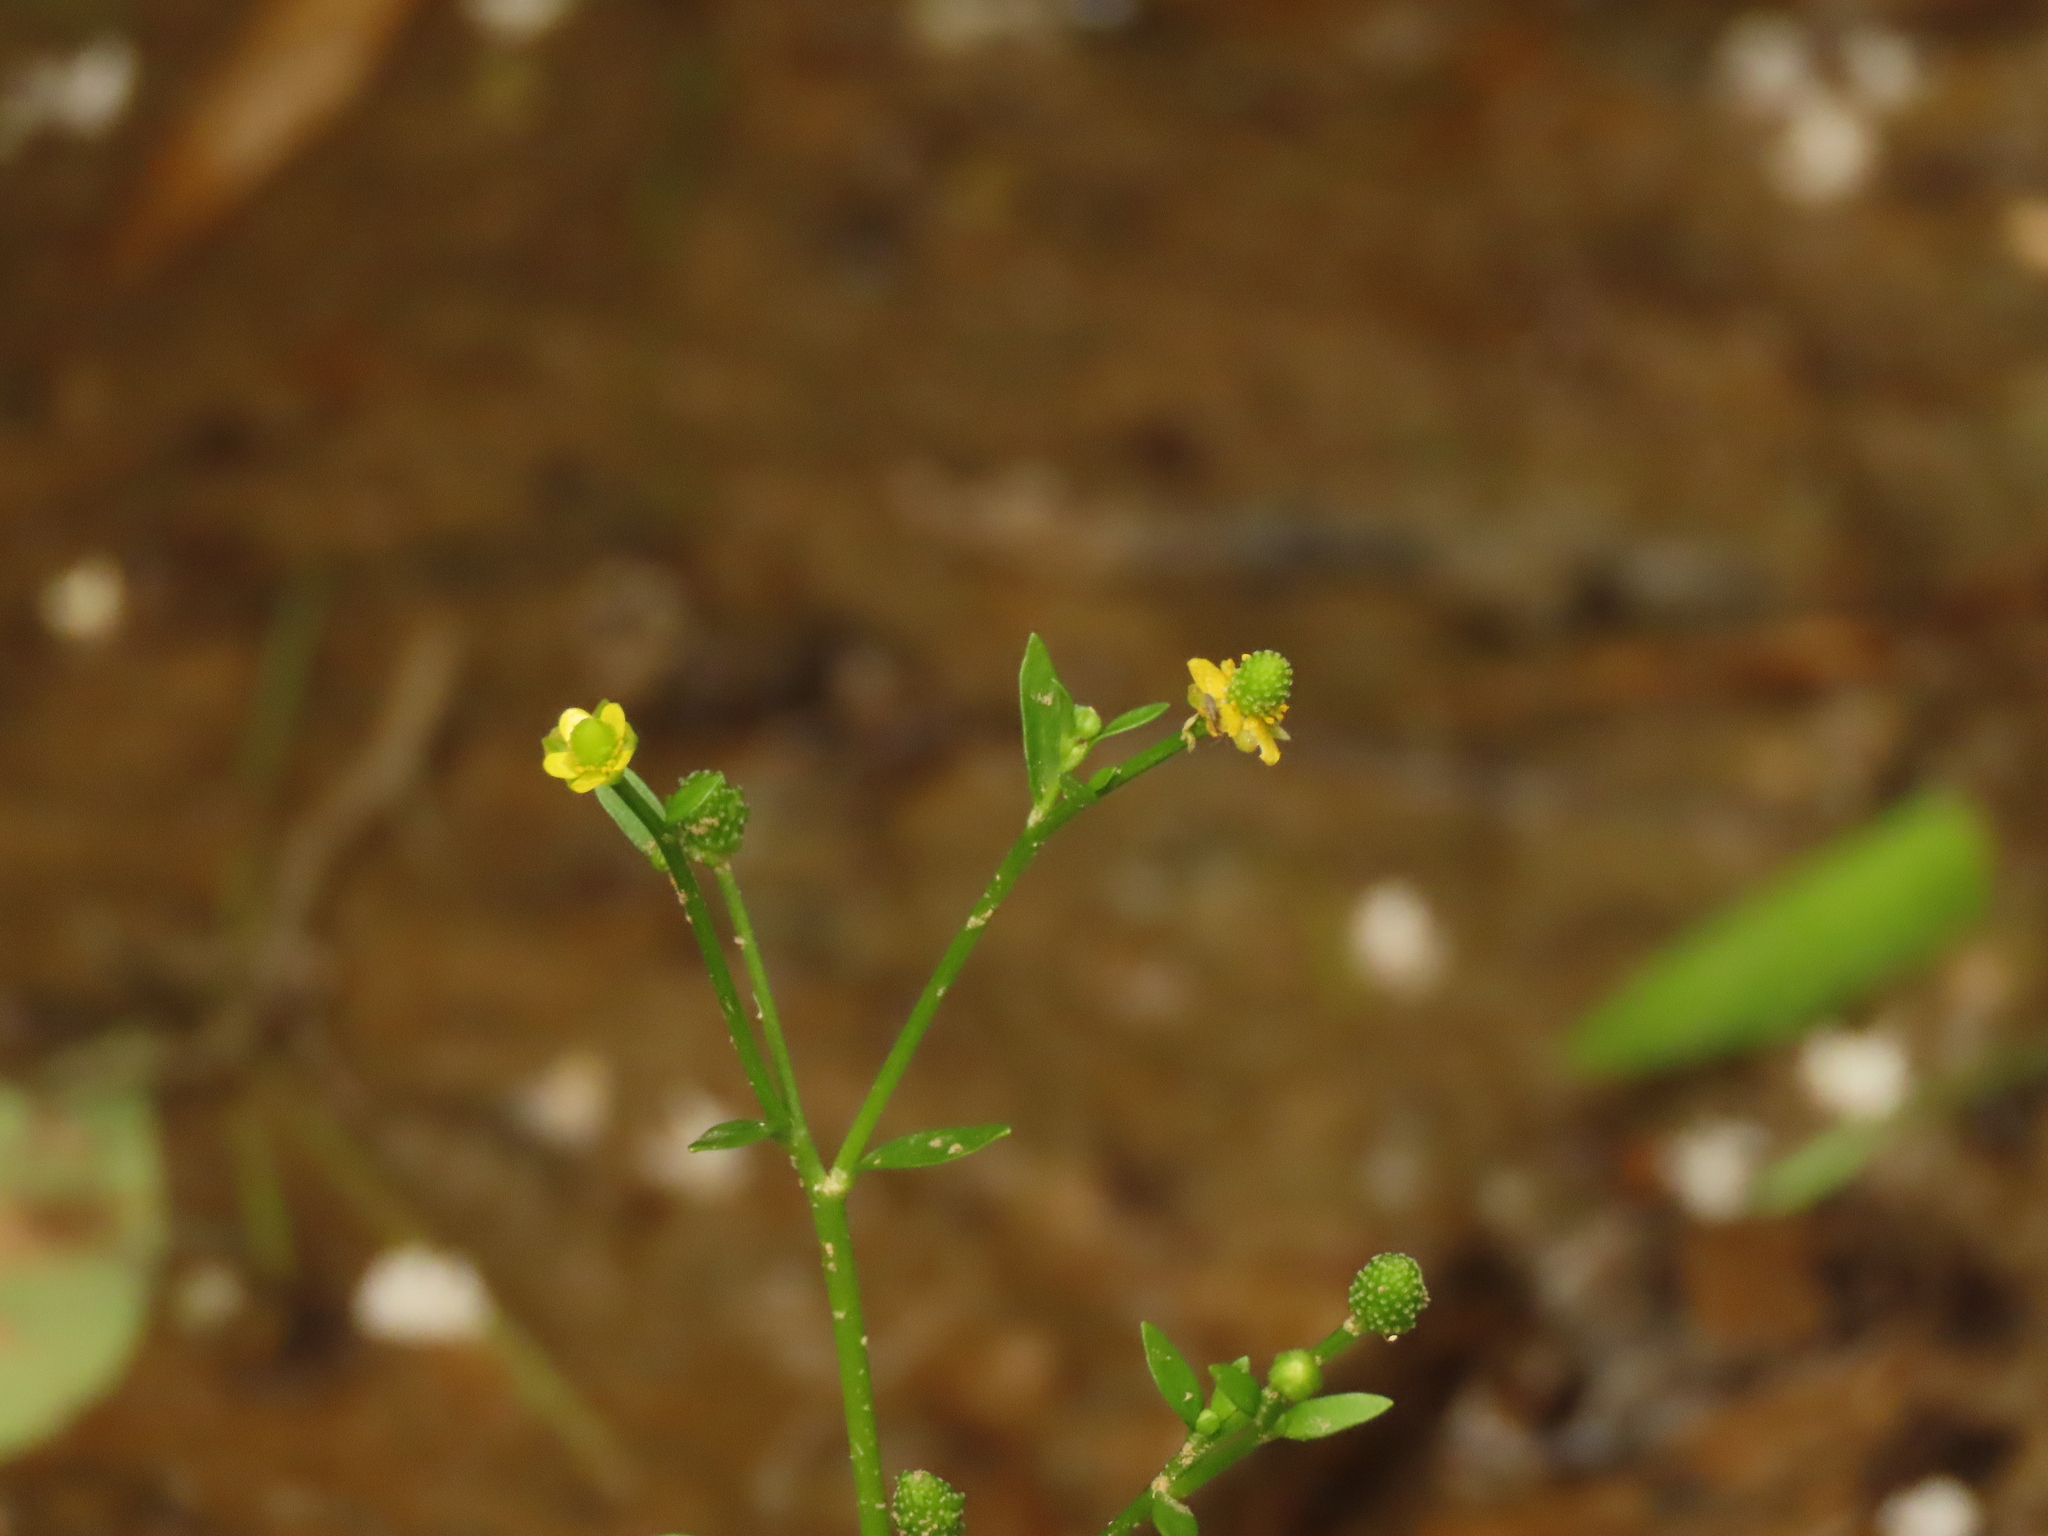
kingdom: Plantae
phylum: Tracheophyta
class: Magnoliopsida
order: Ranunculales
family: Ranunculaceae
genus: Ranunculus
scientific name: Ranunculus sceleratus
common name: Celery-leaved buttercup
